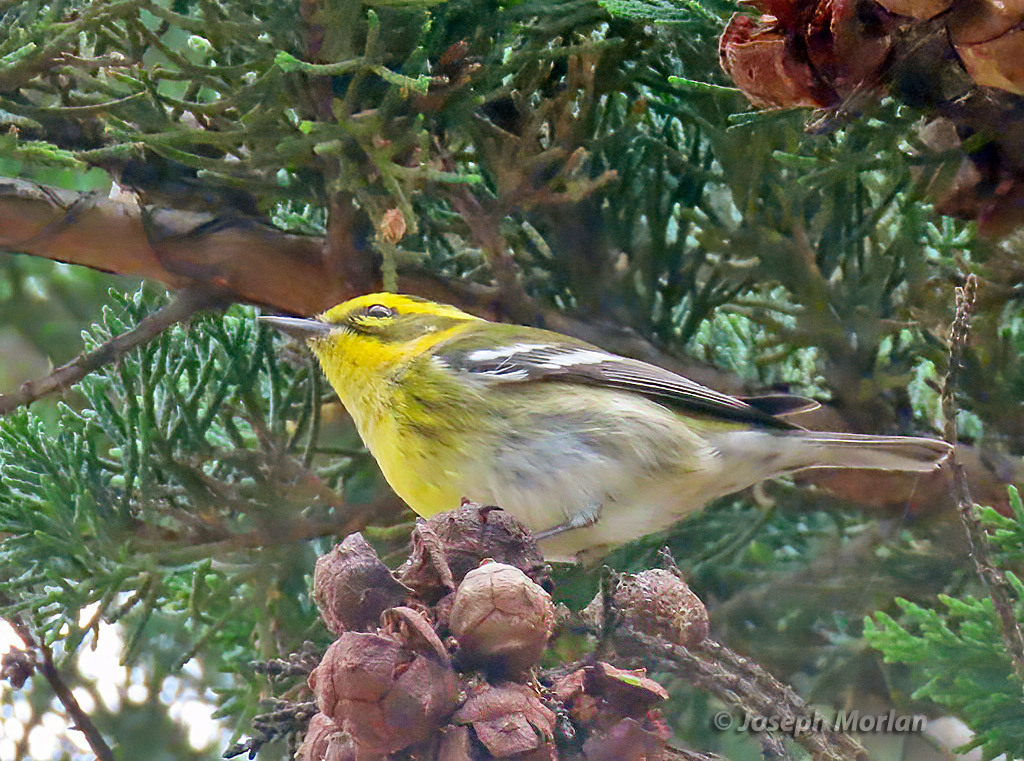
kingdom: Animalia
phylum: Chordata
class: Aves
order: Passeriformes
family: Parulidae
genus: Setophaga
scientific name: Setophaga townsendi
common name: Townsend's warbler
